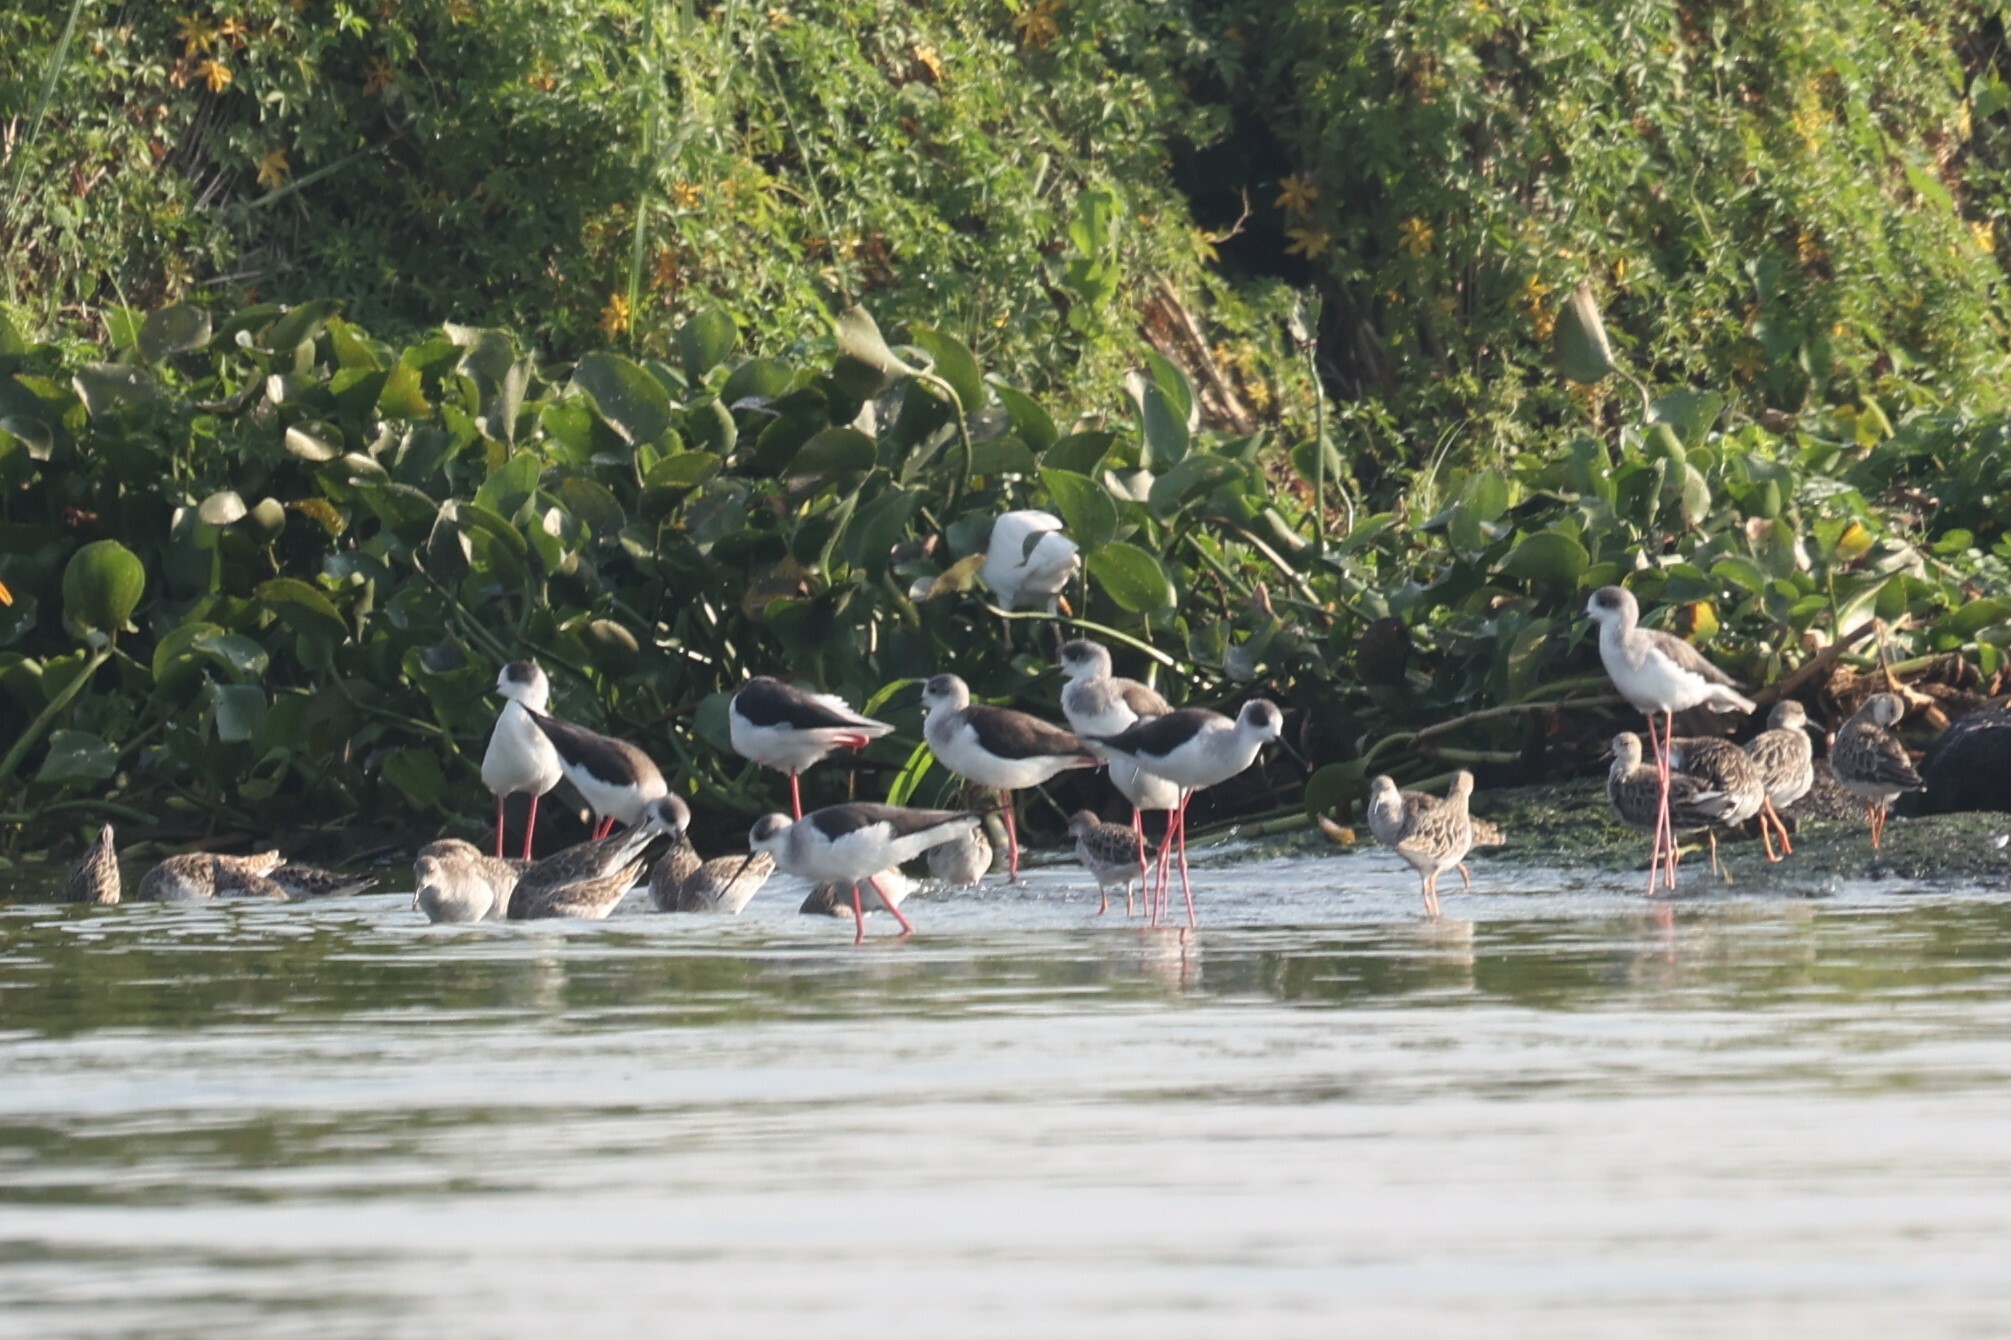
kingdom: Animalia
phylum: Chordata
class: Aves
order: Charadriiformes
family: Recurvirostridae
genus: Himantopus
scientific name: Himantopus himantopus
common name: Black-winged stilt
